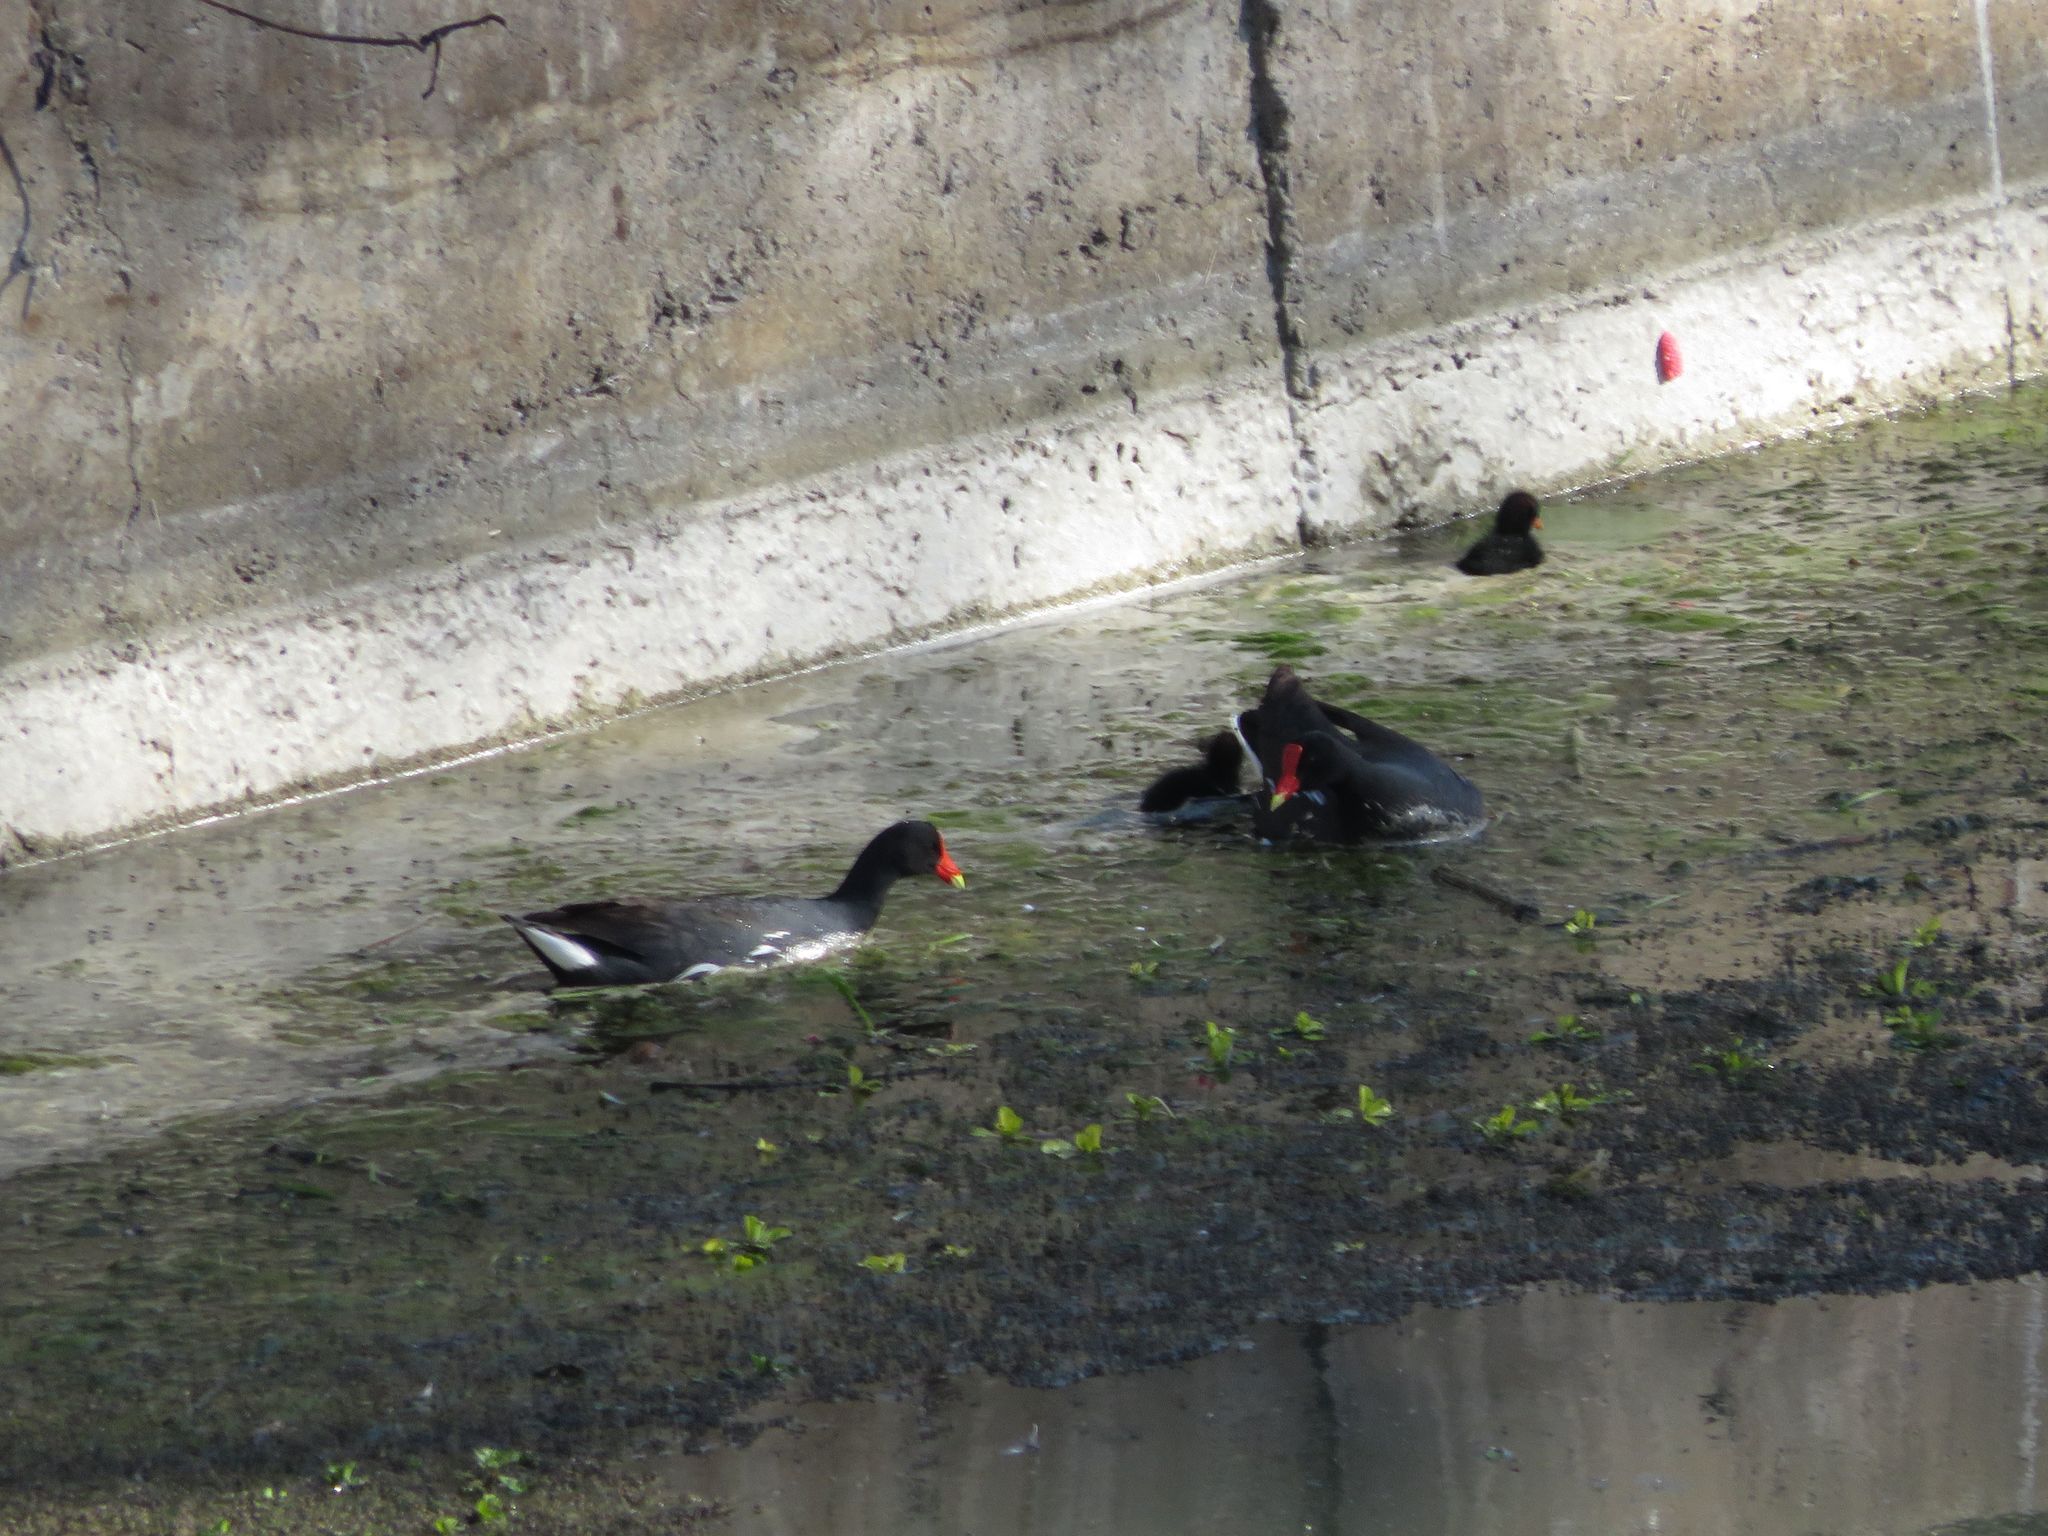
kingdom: Animalia
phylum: Chordata
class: Aves
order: Gruiformes
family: Rallidae
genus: Gallinula
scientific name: Gallinula chloropus
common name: Common moorhen
